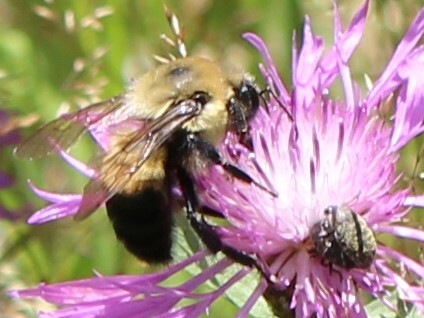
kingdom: Animalia
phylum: Arthropoda
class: Insecta
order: Coleoptera
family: Curculionidae
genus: Larinus
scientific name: Larinus obtusus
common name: Weevil
